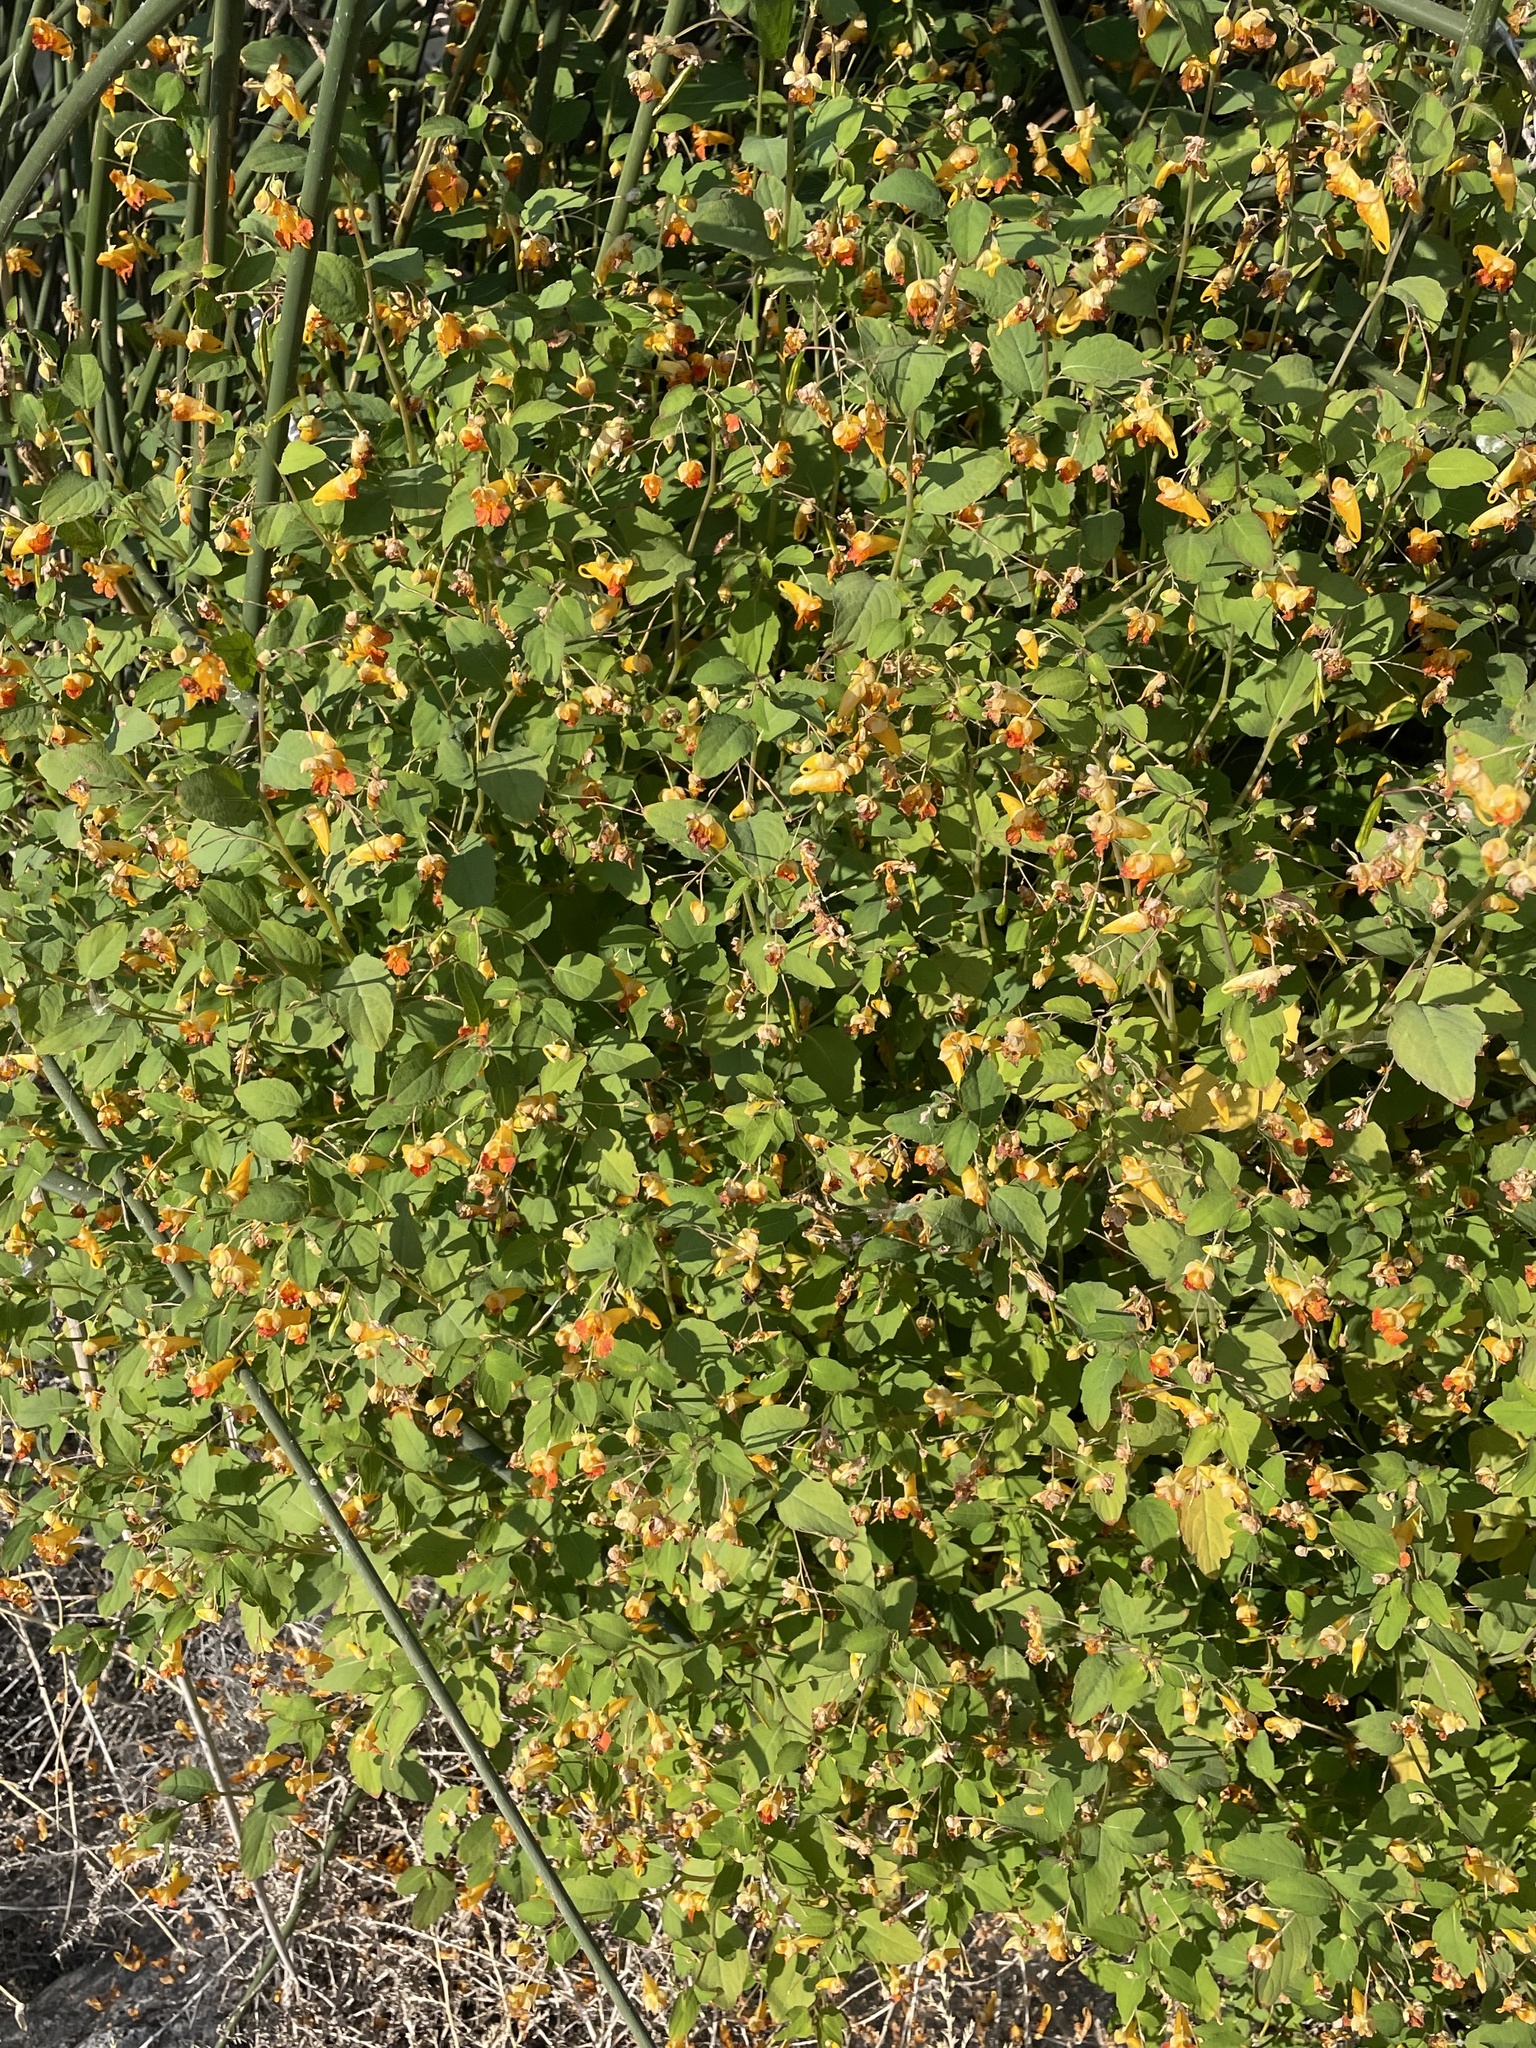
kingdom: Plantae
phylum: Tracheophyta
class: Magnoliopsida
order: Ericales
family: Balsaminaceae
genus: Impatiens
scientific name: Impatiens capensis
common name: Orange balsam
